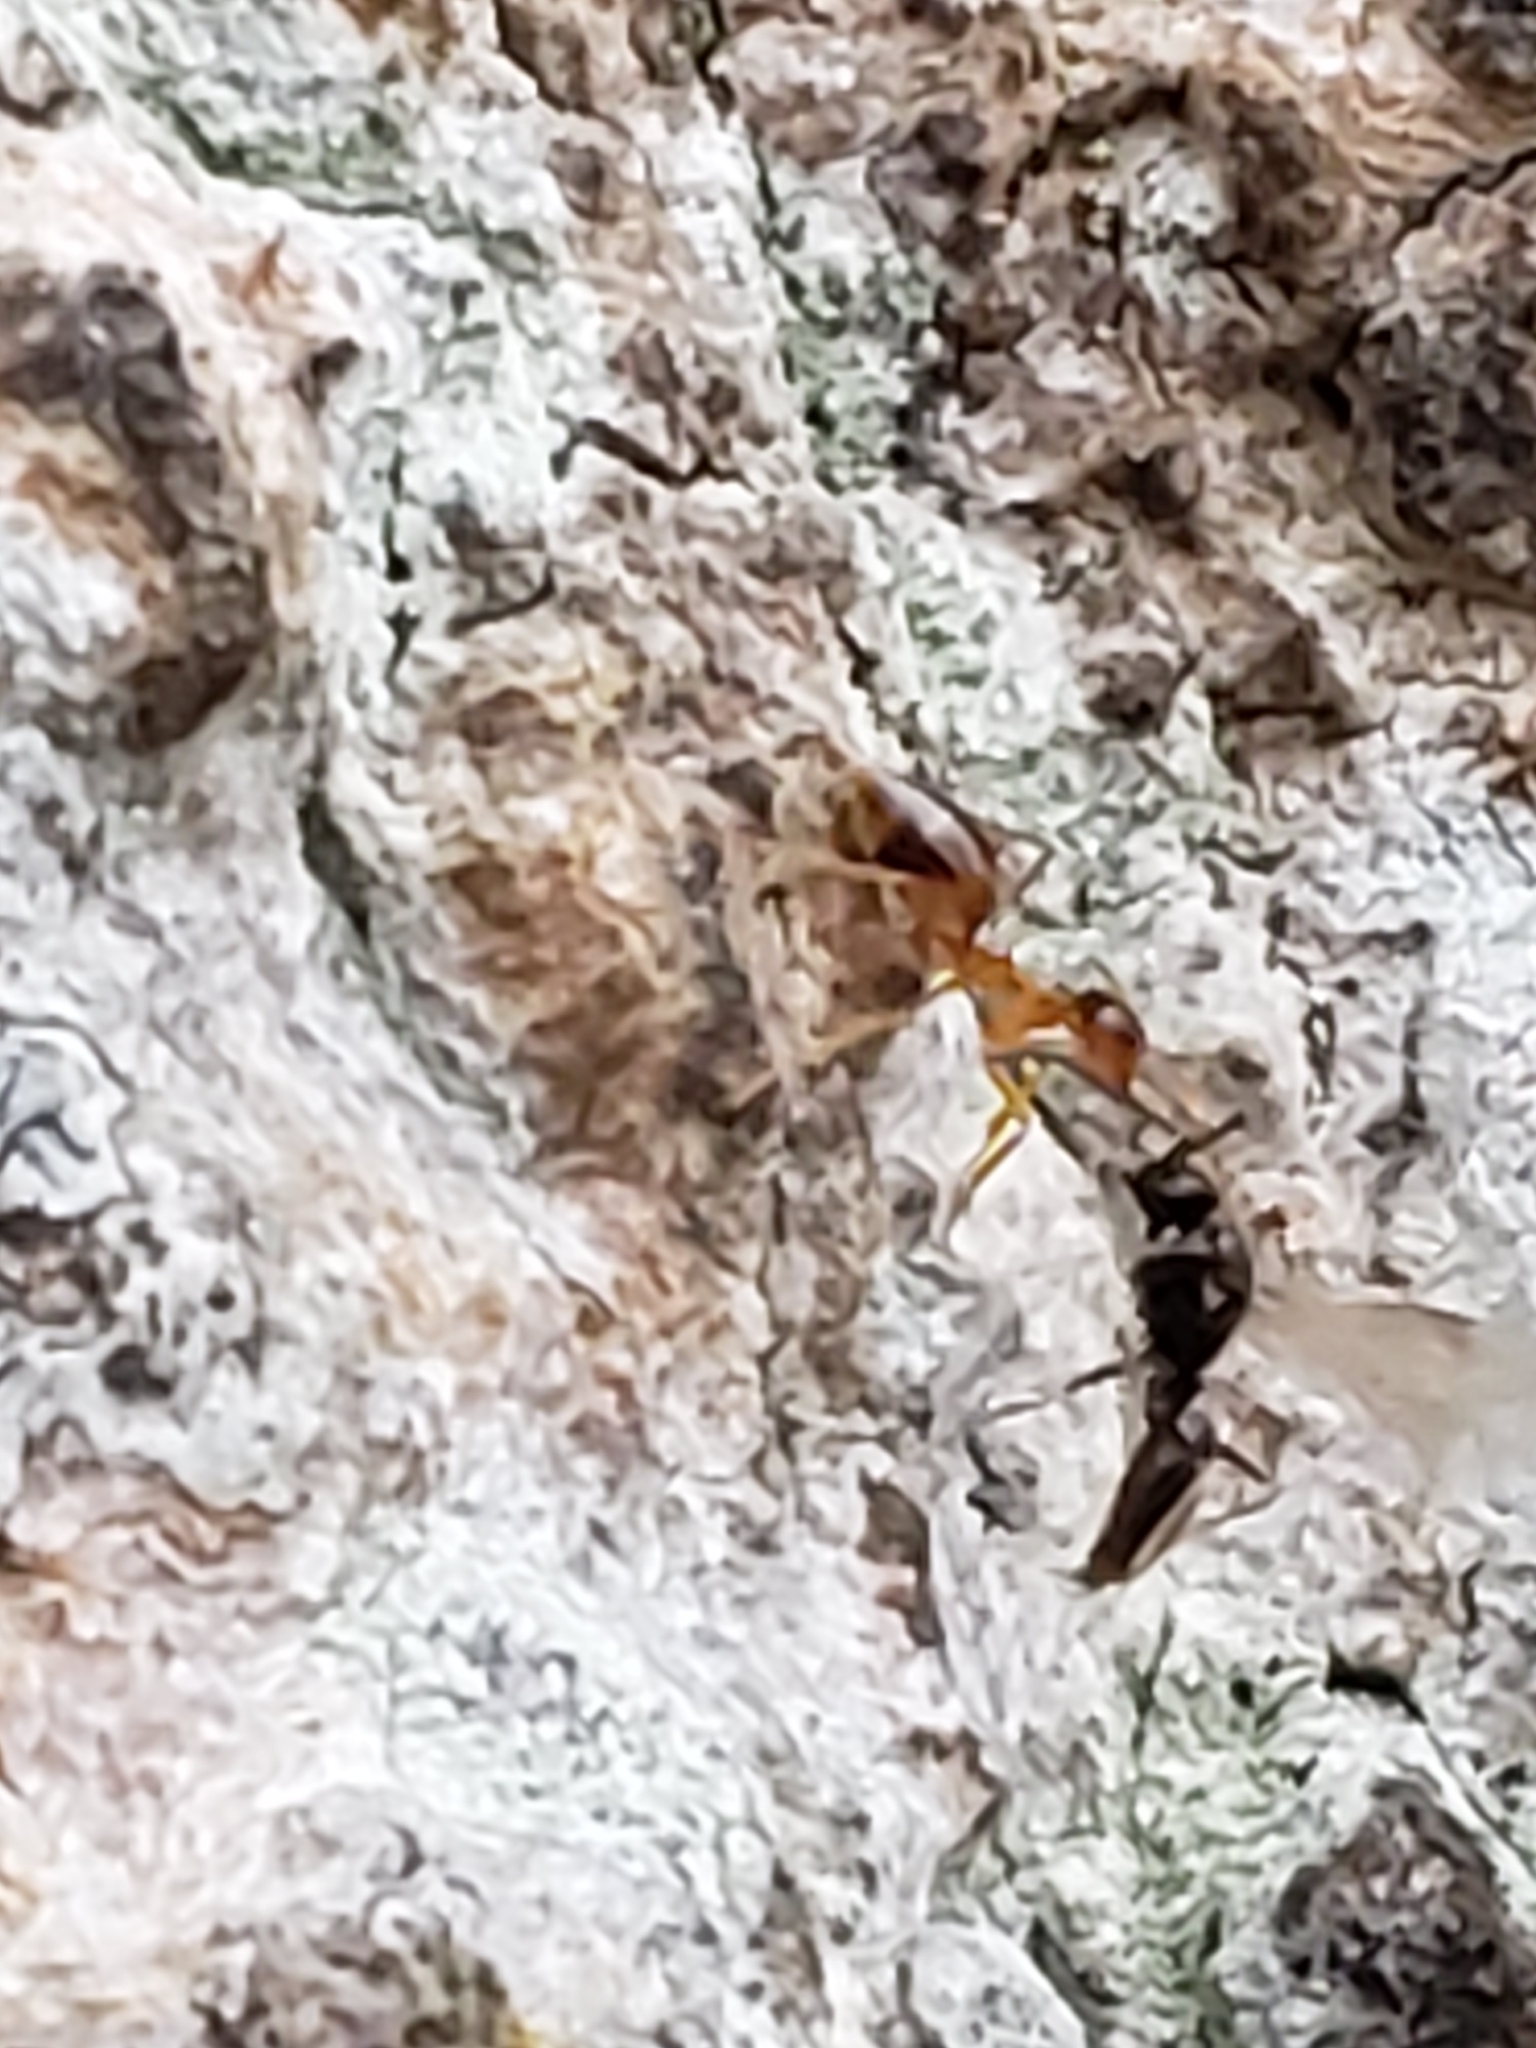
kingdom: Animalia
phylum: Arthropoda
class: Insecta
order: Hymenoptera
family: Formicidae
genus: Prenolepis
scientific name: Prenolepis imparis
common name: Small honey ant
